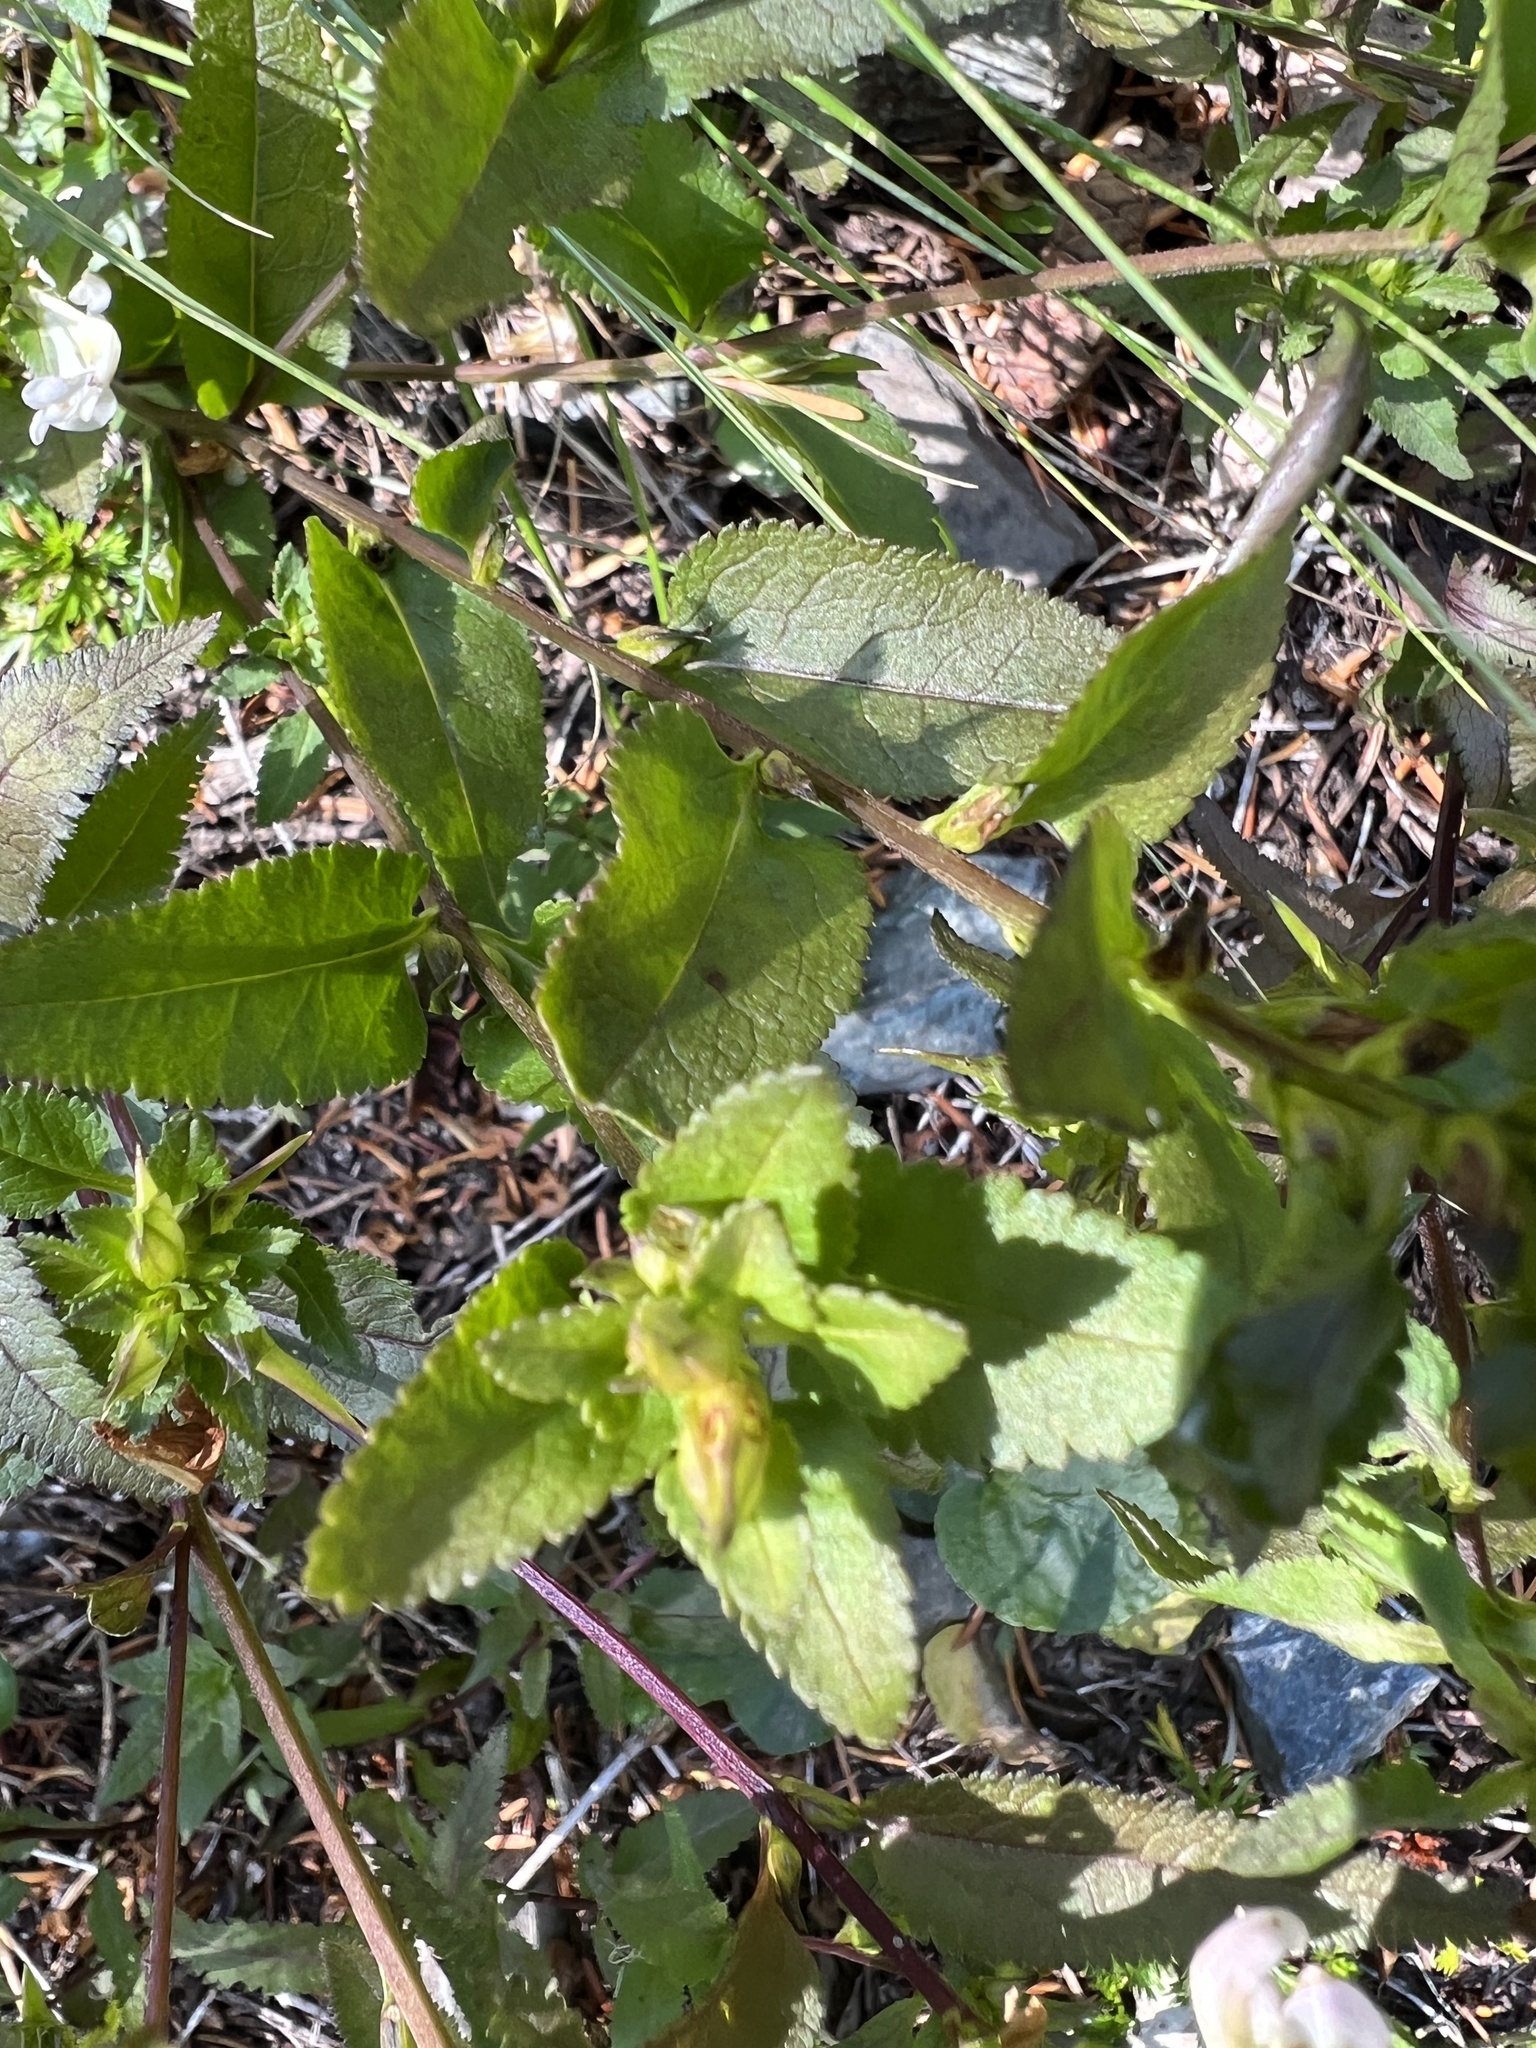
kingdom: Plantae
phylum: Tracheophyta
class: Magnoliopsida
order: Lamiales
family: Orobanchaceae
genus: Pedicularis
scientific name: Pedicularis racemosa
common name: Leafy lousewort
